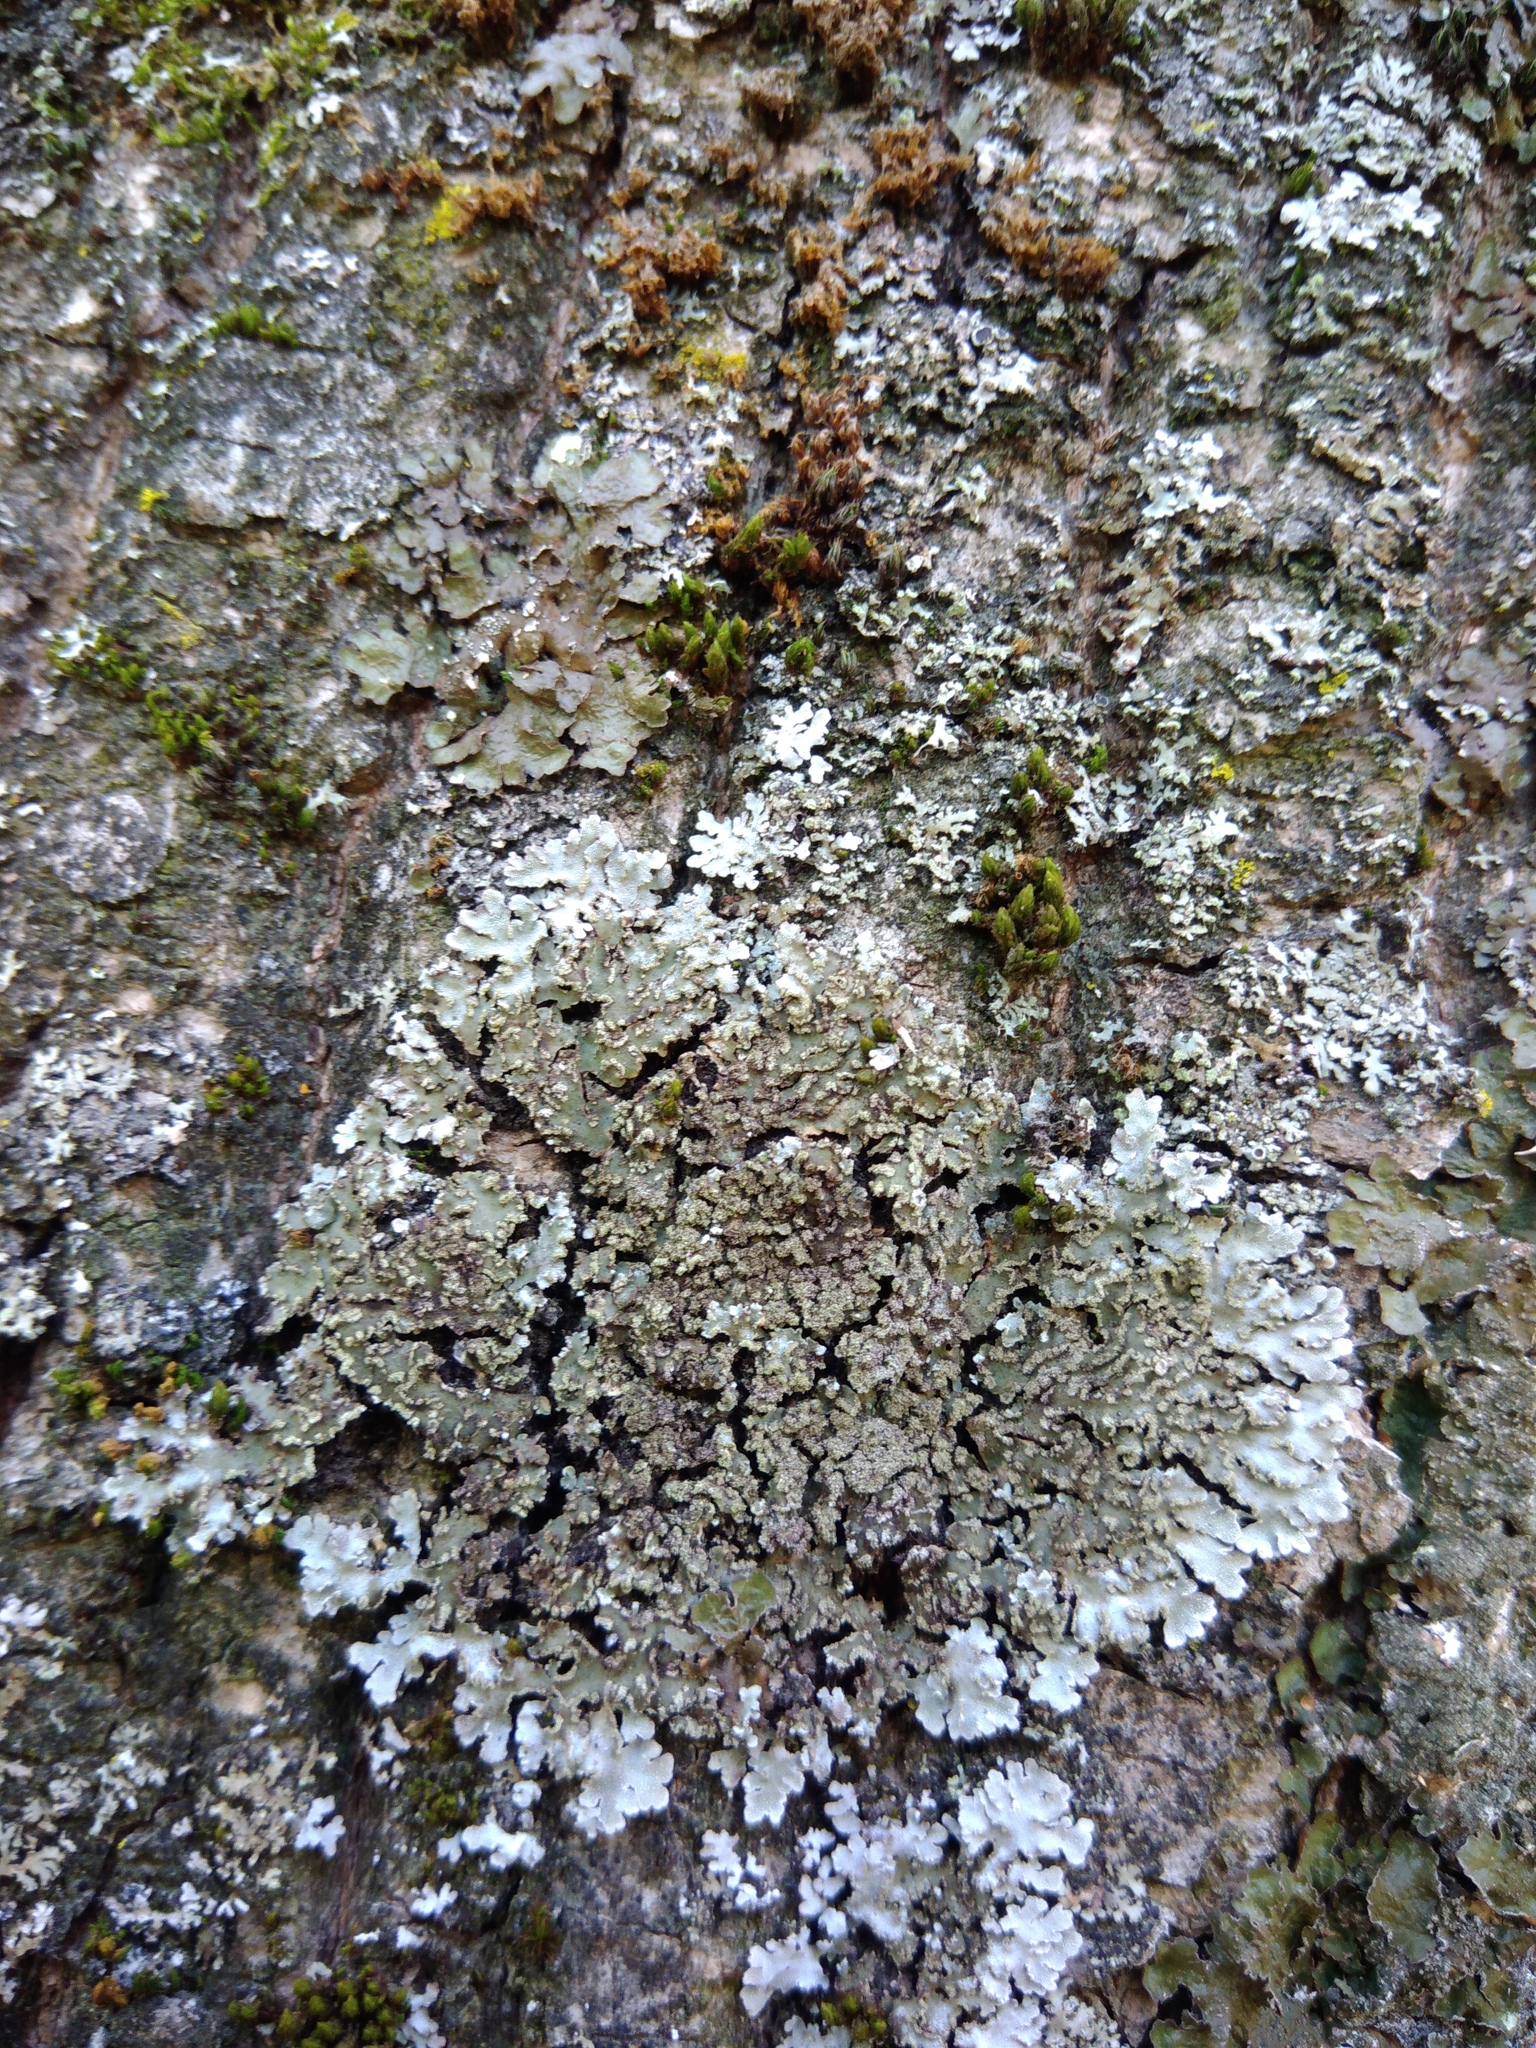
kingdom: Fungi
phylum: Ascomycota
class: Lecanoromycetes
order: Caliciales
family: Physciaceae
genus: Poeltonia
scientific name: Poeltonia grisea
